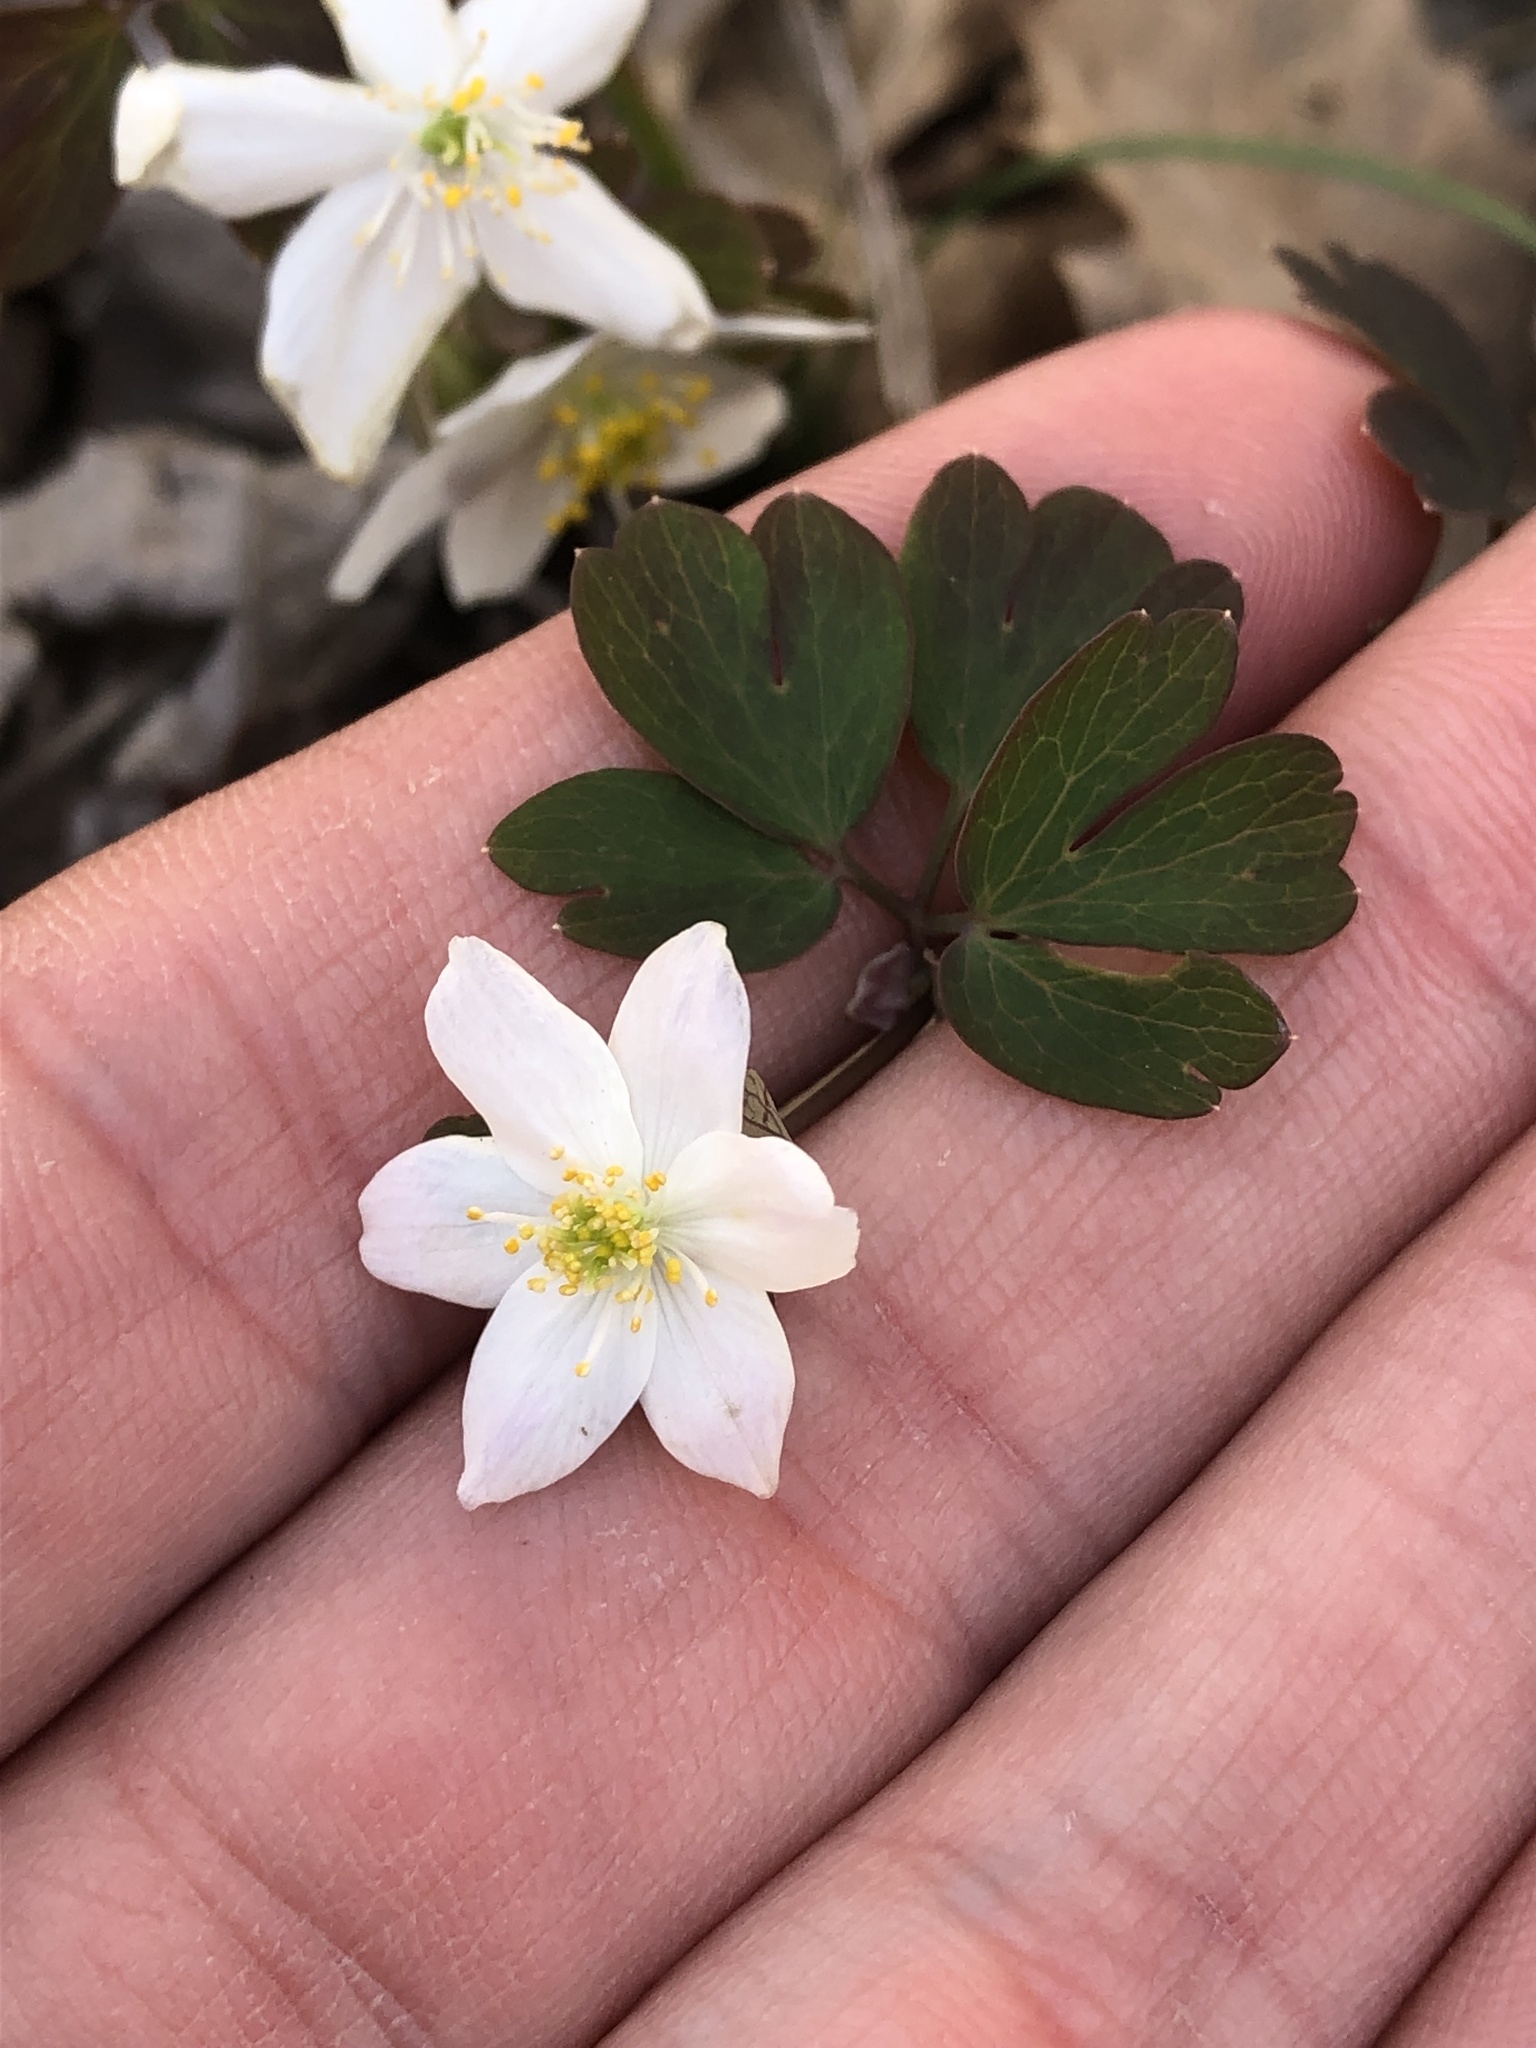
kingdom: Plantae
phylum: Tracheophyta
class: Magnoliopsida
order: Ranunculales
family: Ranunculaceae
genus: Enemion
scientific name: Enemion biternatum
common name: Eastern false rue-anemone
